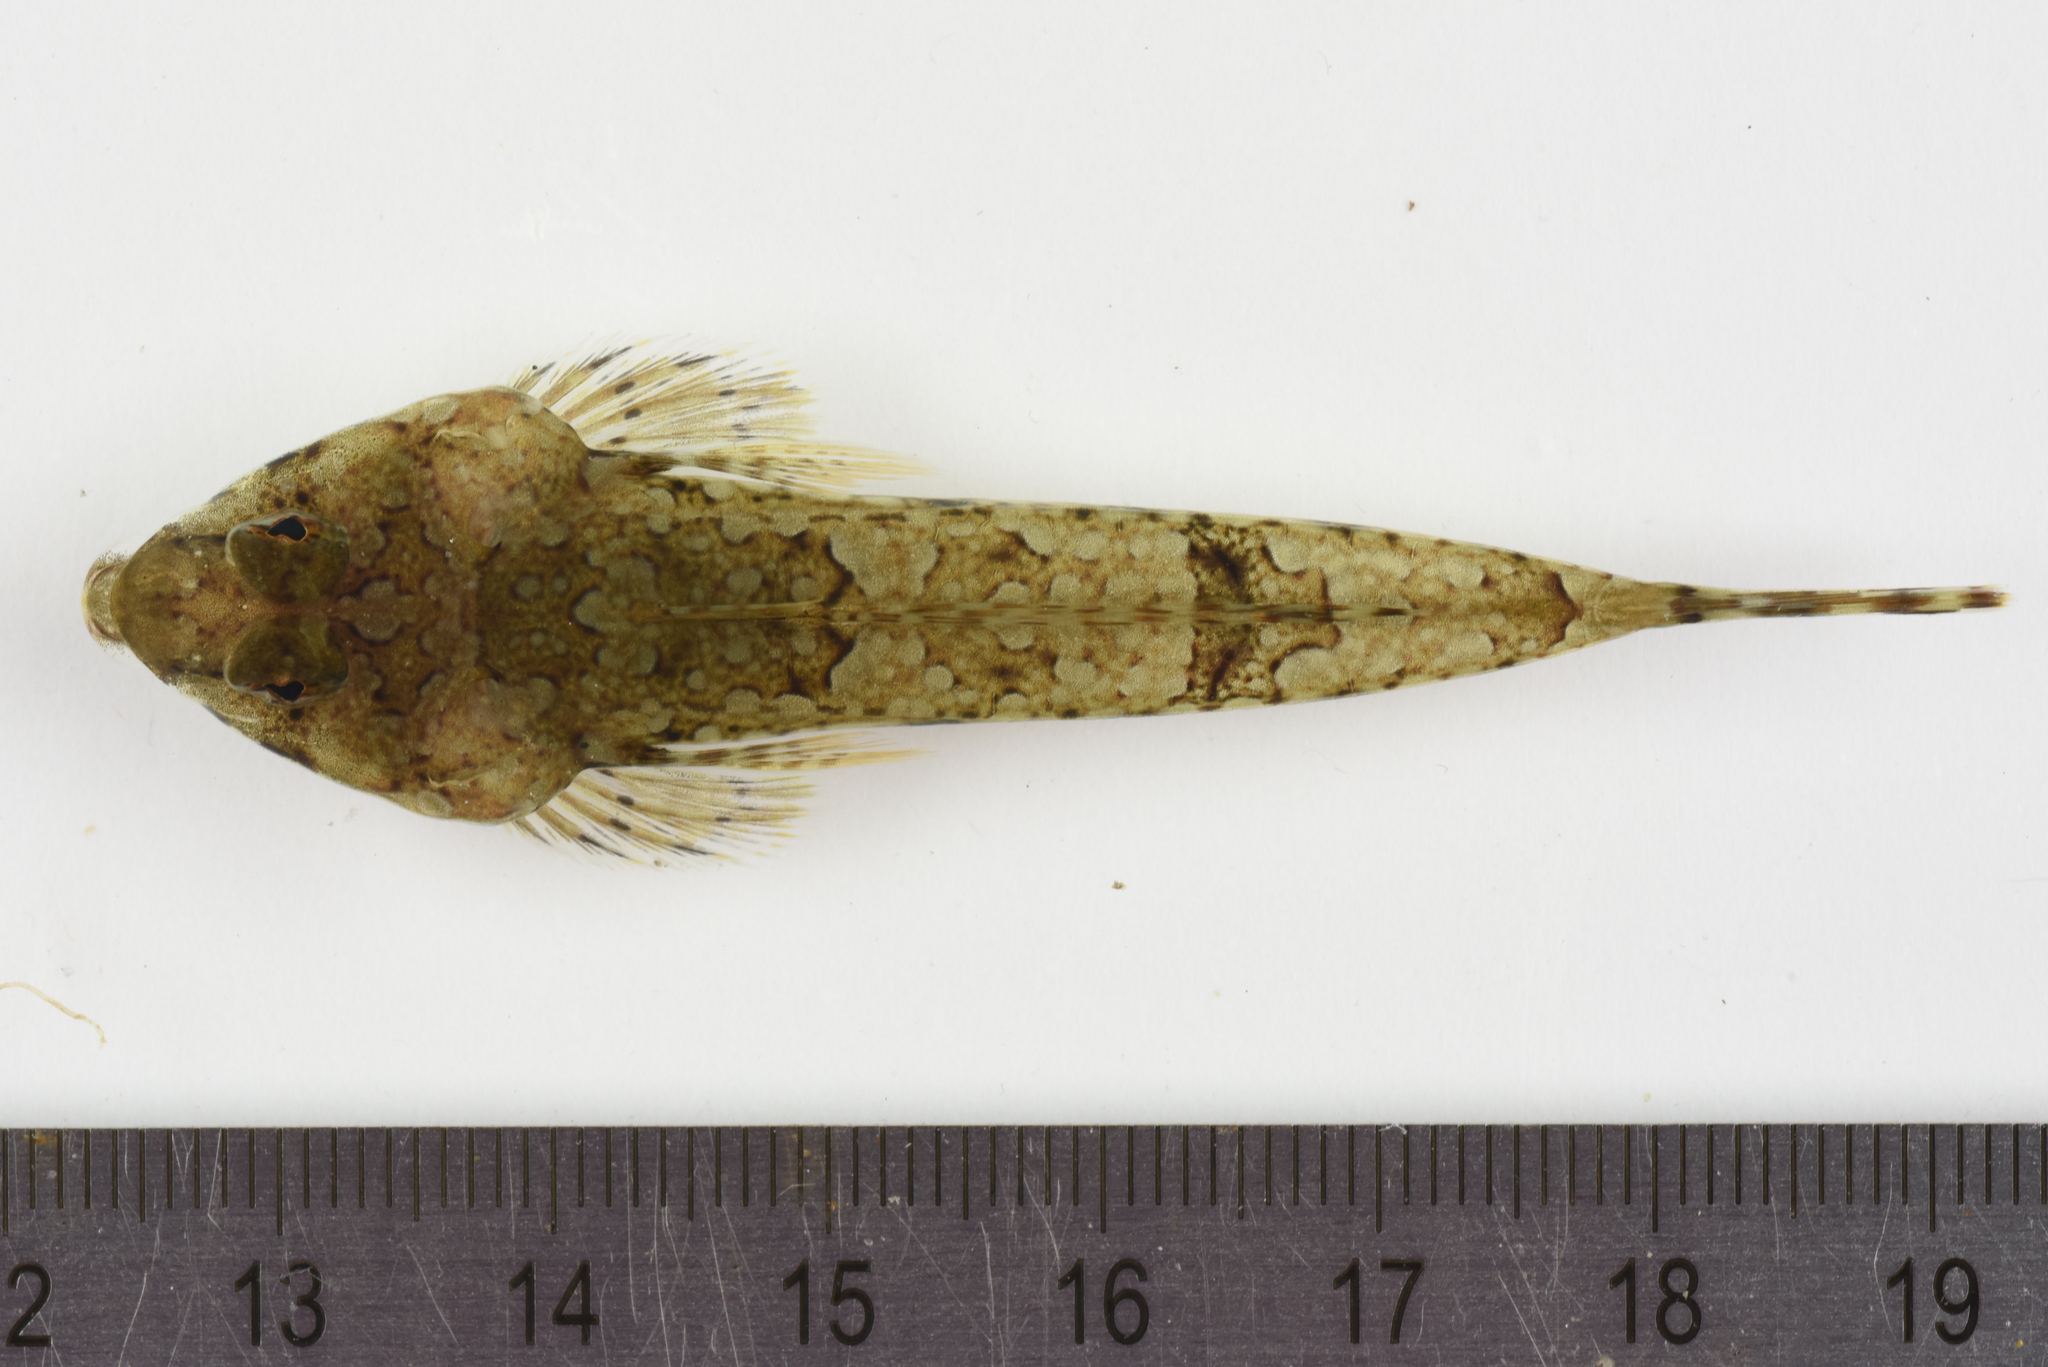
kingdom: Animalia
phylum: Chordata
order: Perciformes
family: Callionymidae
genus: Callionymus
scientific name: Callionymus lyra
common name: Dragonet
